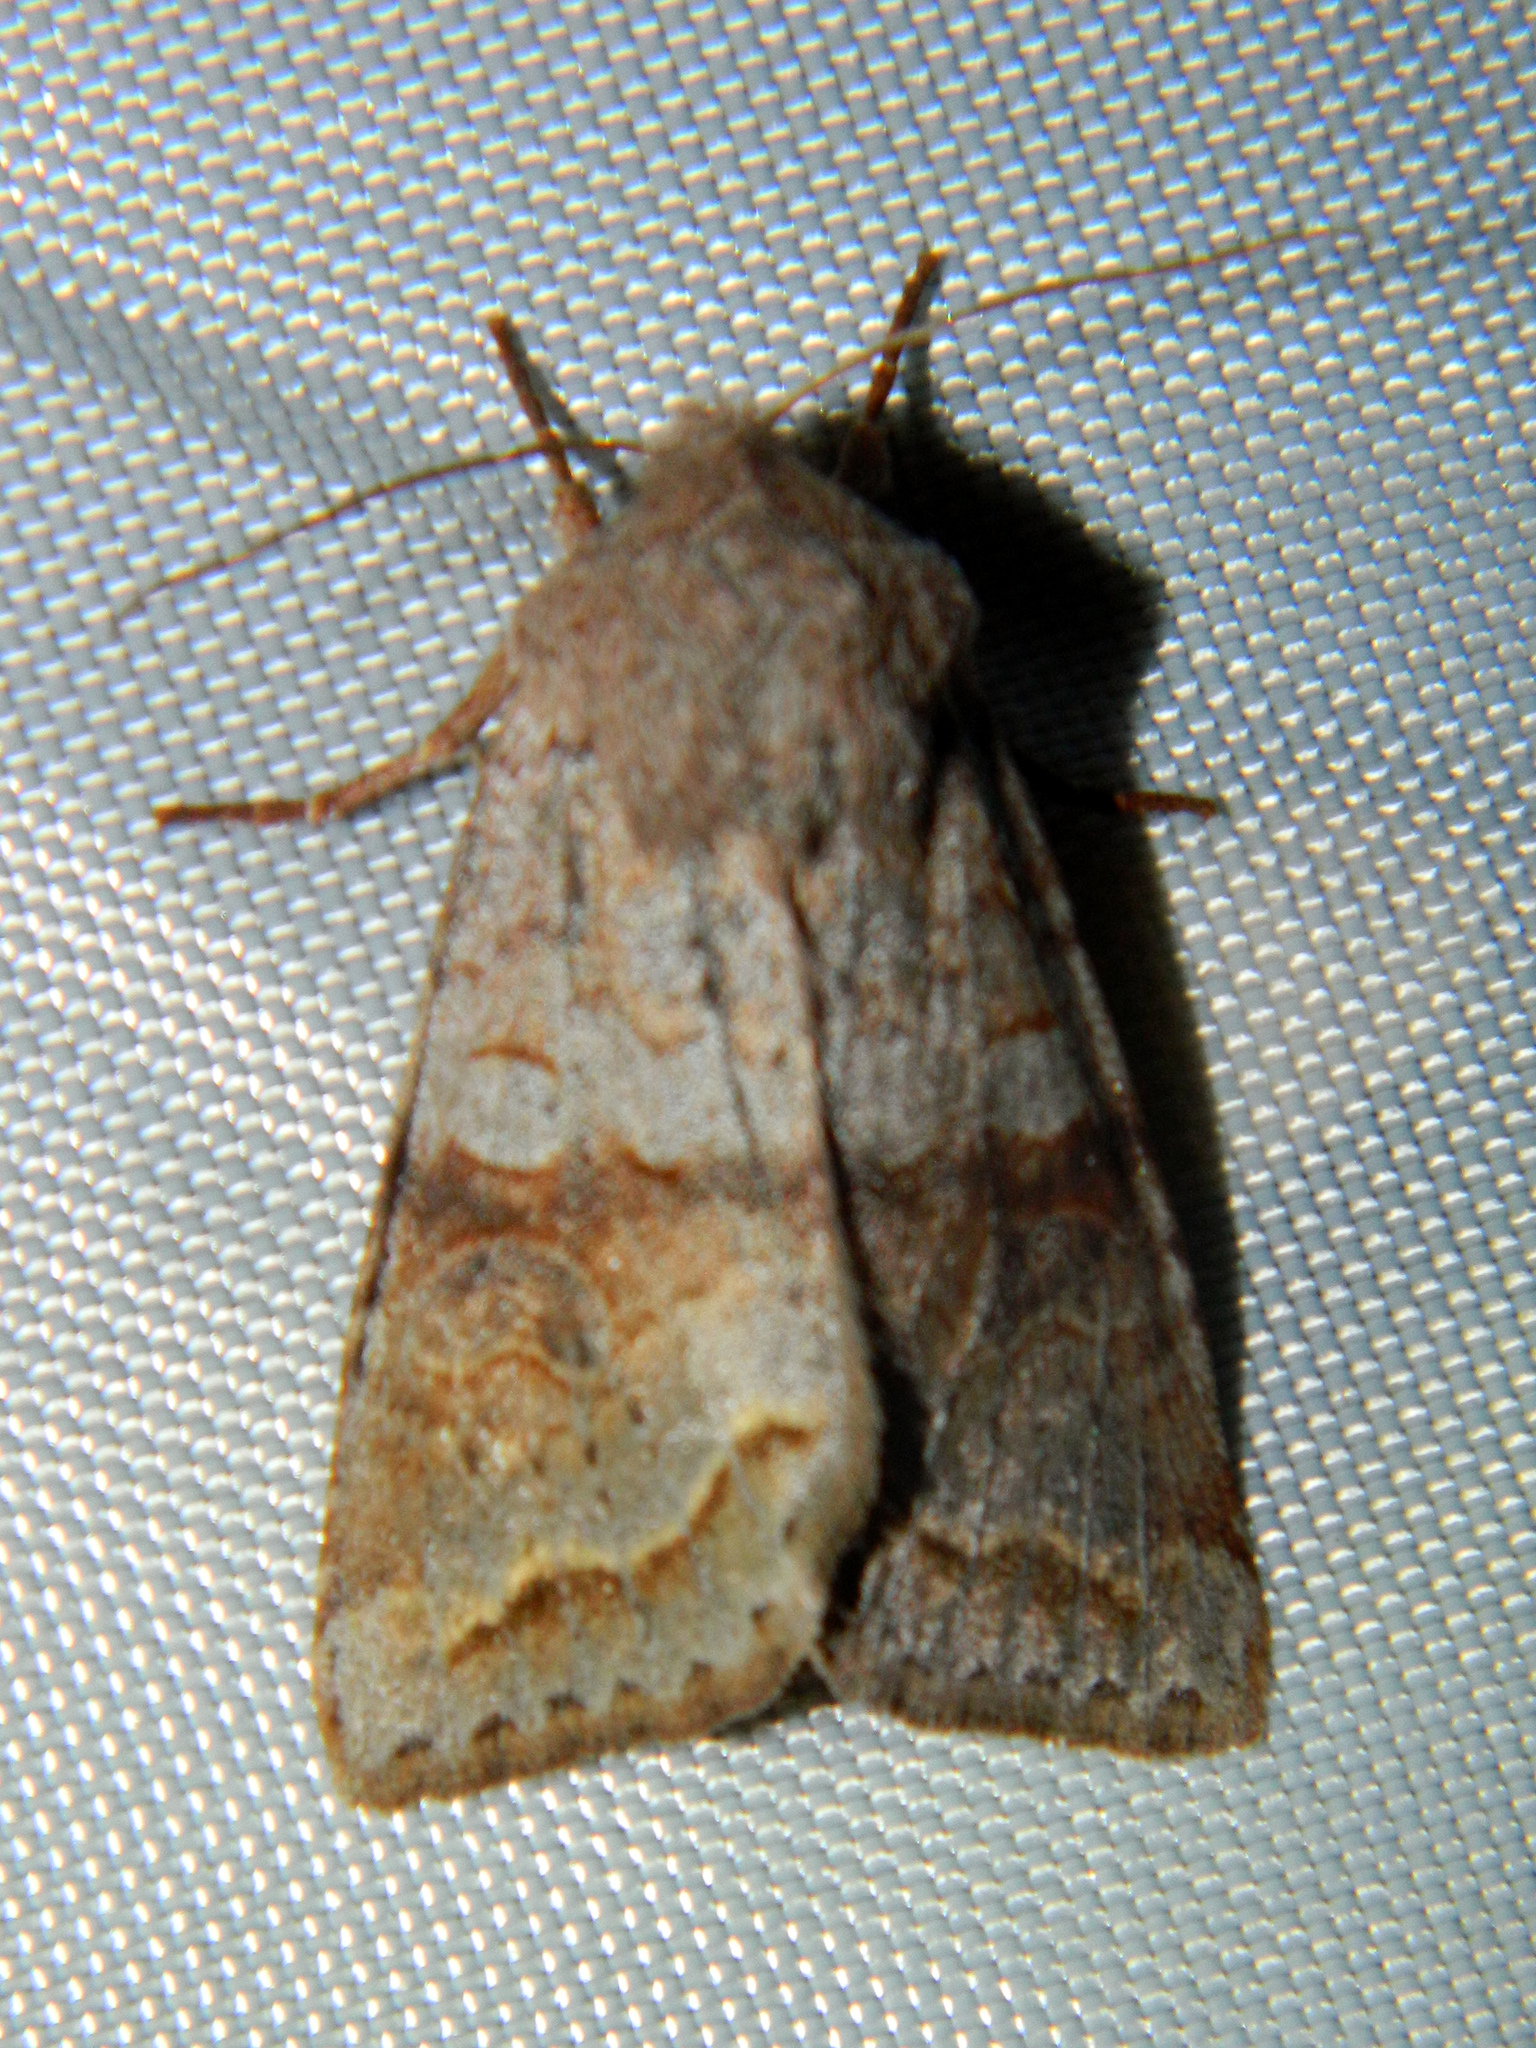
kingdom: Animalia
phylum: Arthropoda
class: Insecta
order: Lepidoptera
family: Noctuidae
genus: Orthosia
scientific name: Orthosia revicta
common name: Rusty whitesided caterpillar
